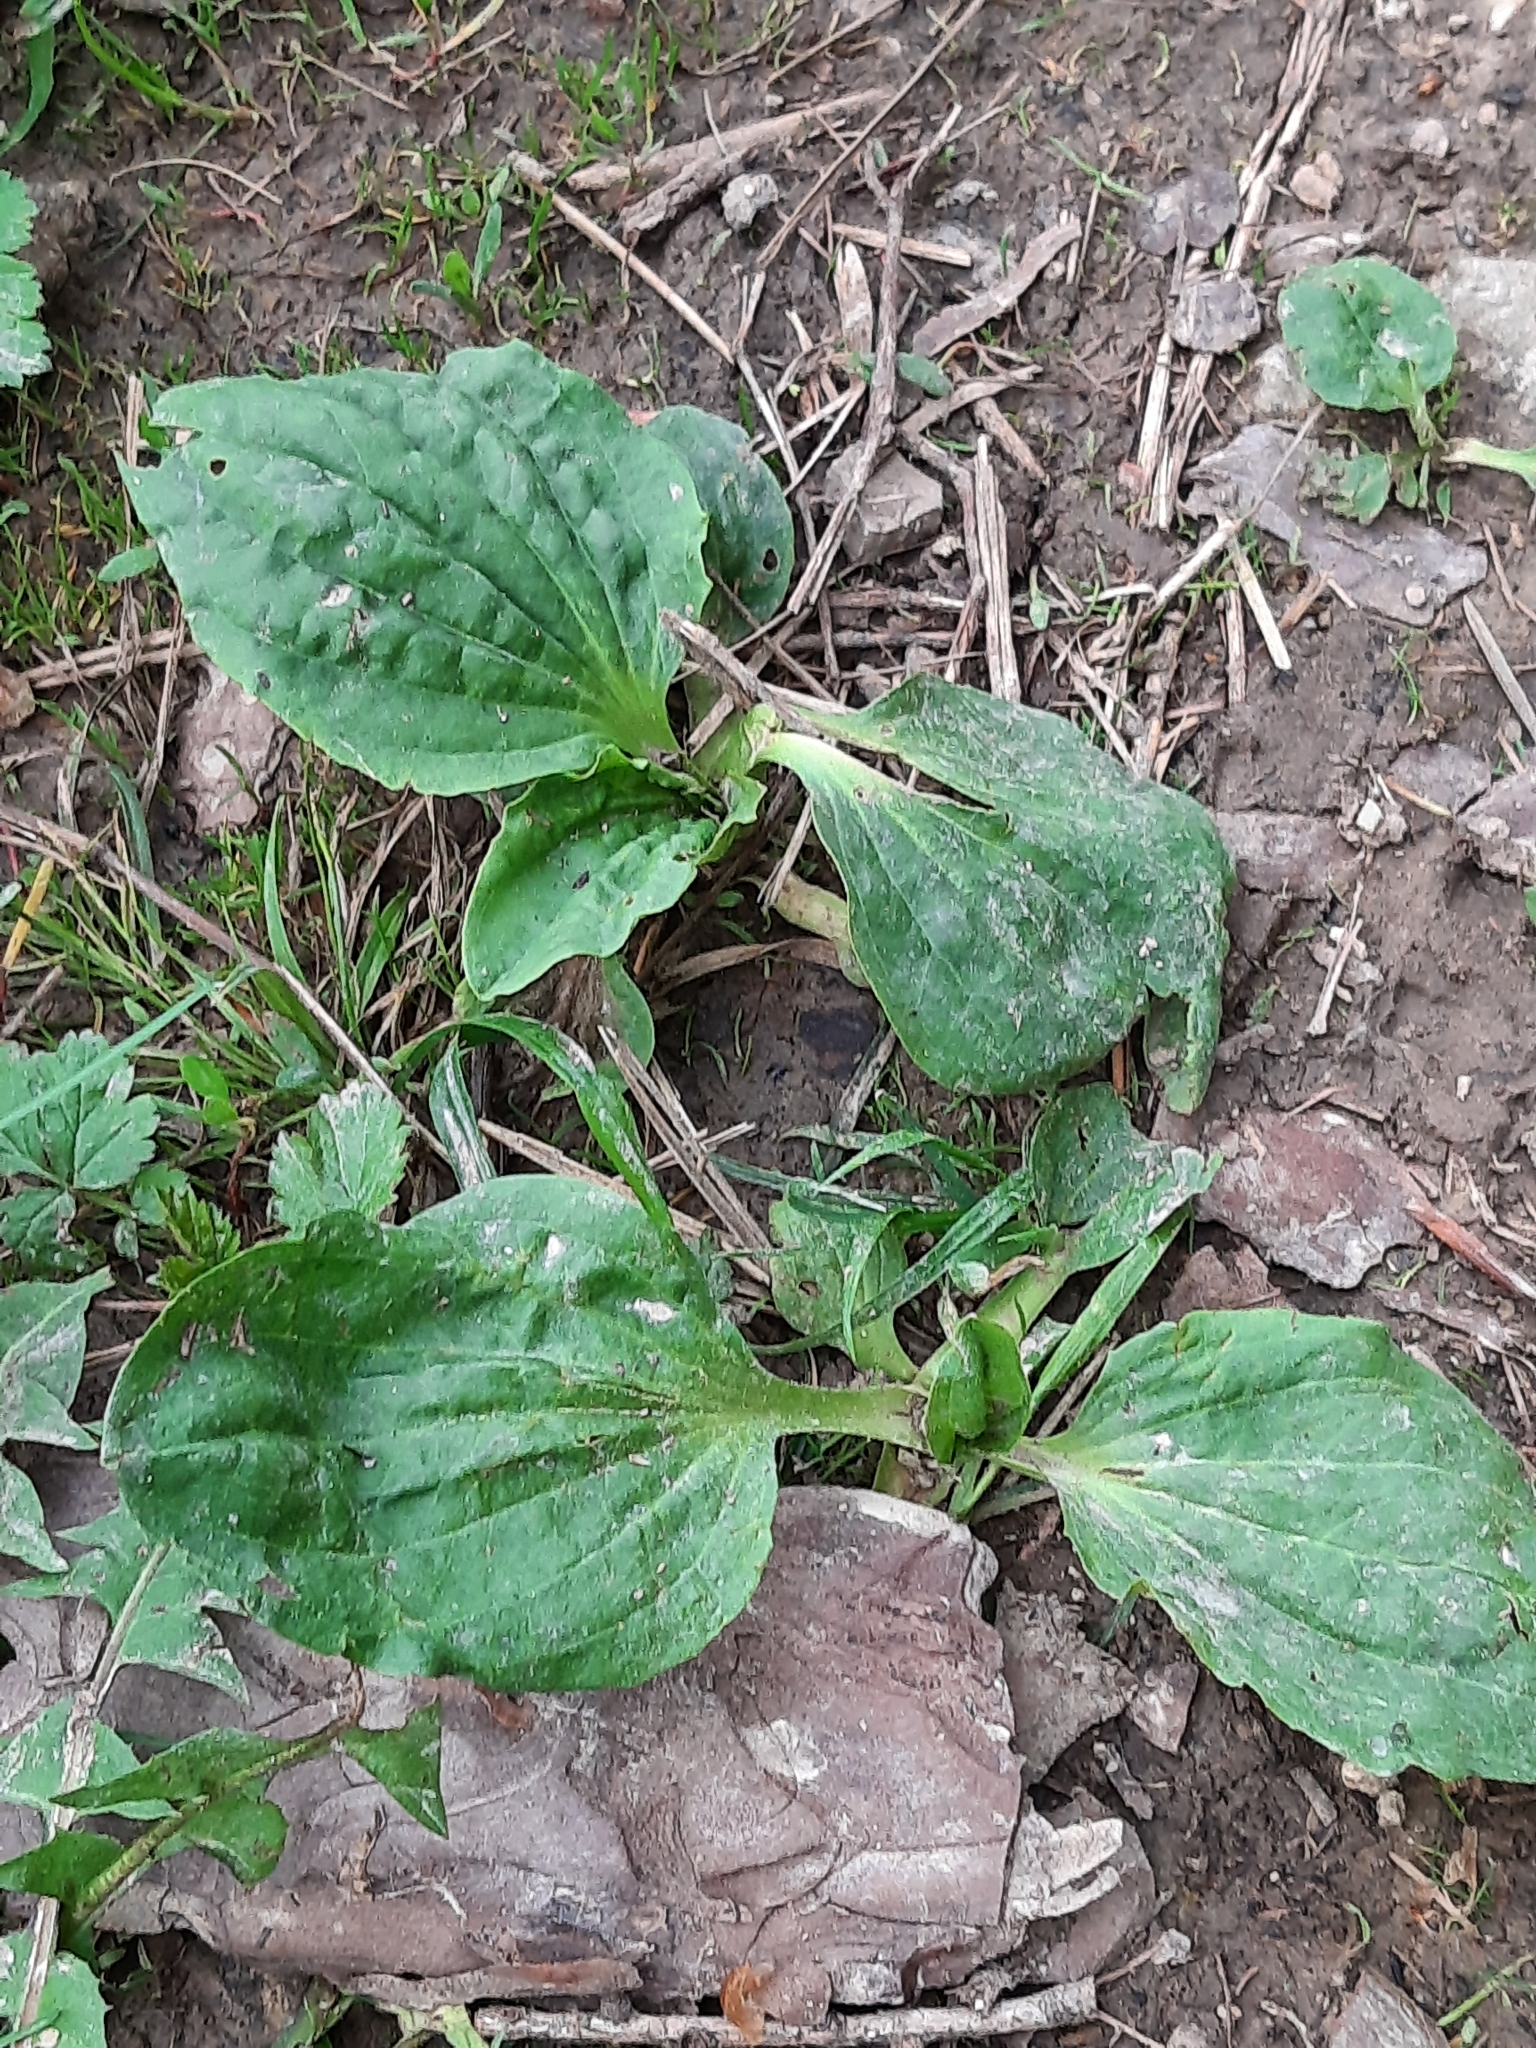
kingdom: Plantae
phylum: Tracheophyta
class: Magnoliopsida
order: Lamiales
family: Plantaginaceae
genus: Plantago
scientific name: Plantago major
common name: Common plantain
